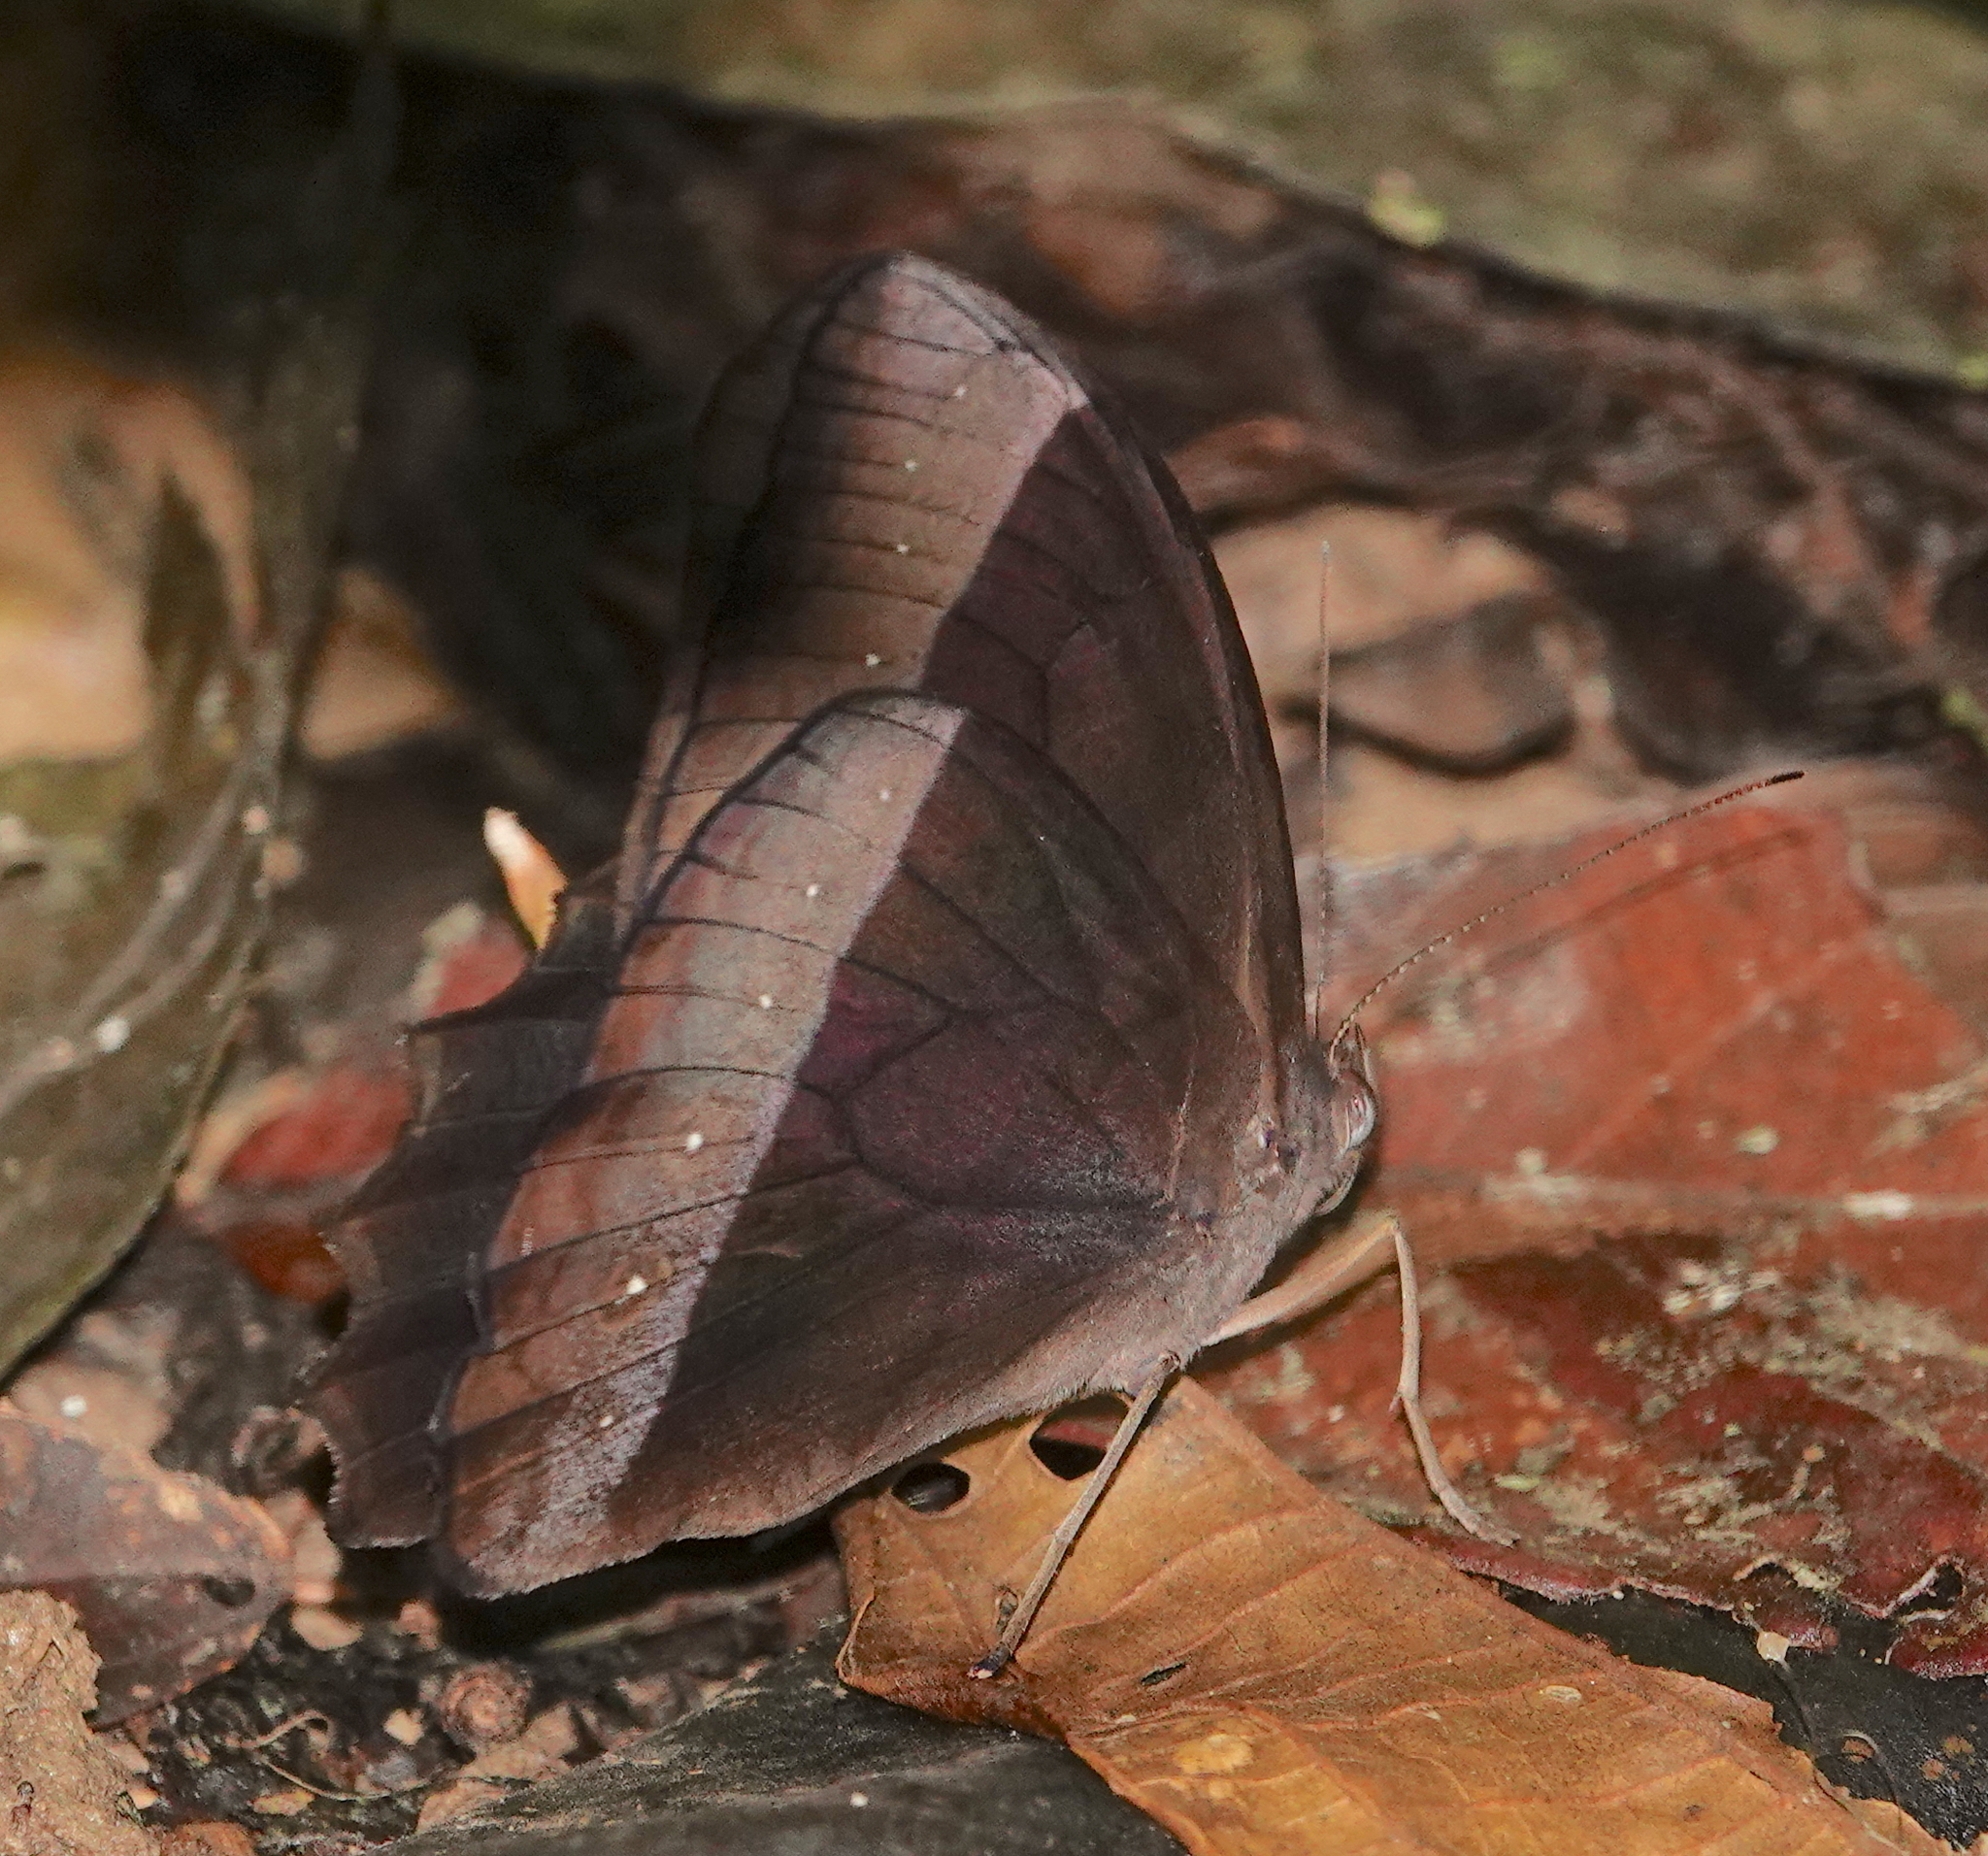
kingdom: Animalia
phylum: Arthropoda
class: Insecta
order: Lepidoptera
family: Nymphalidae
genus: Taygetis
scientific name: Taygetis xenana
